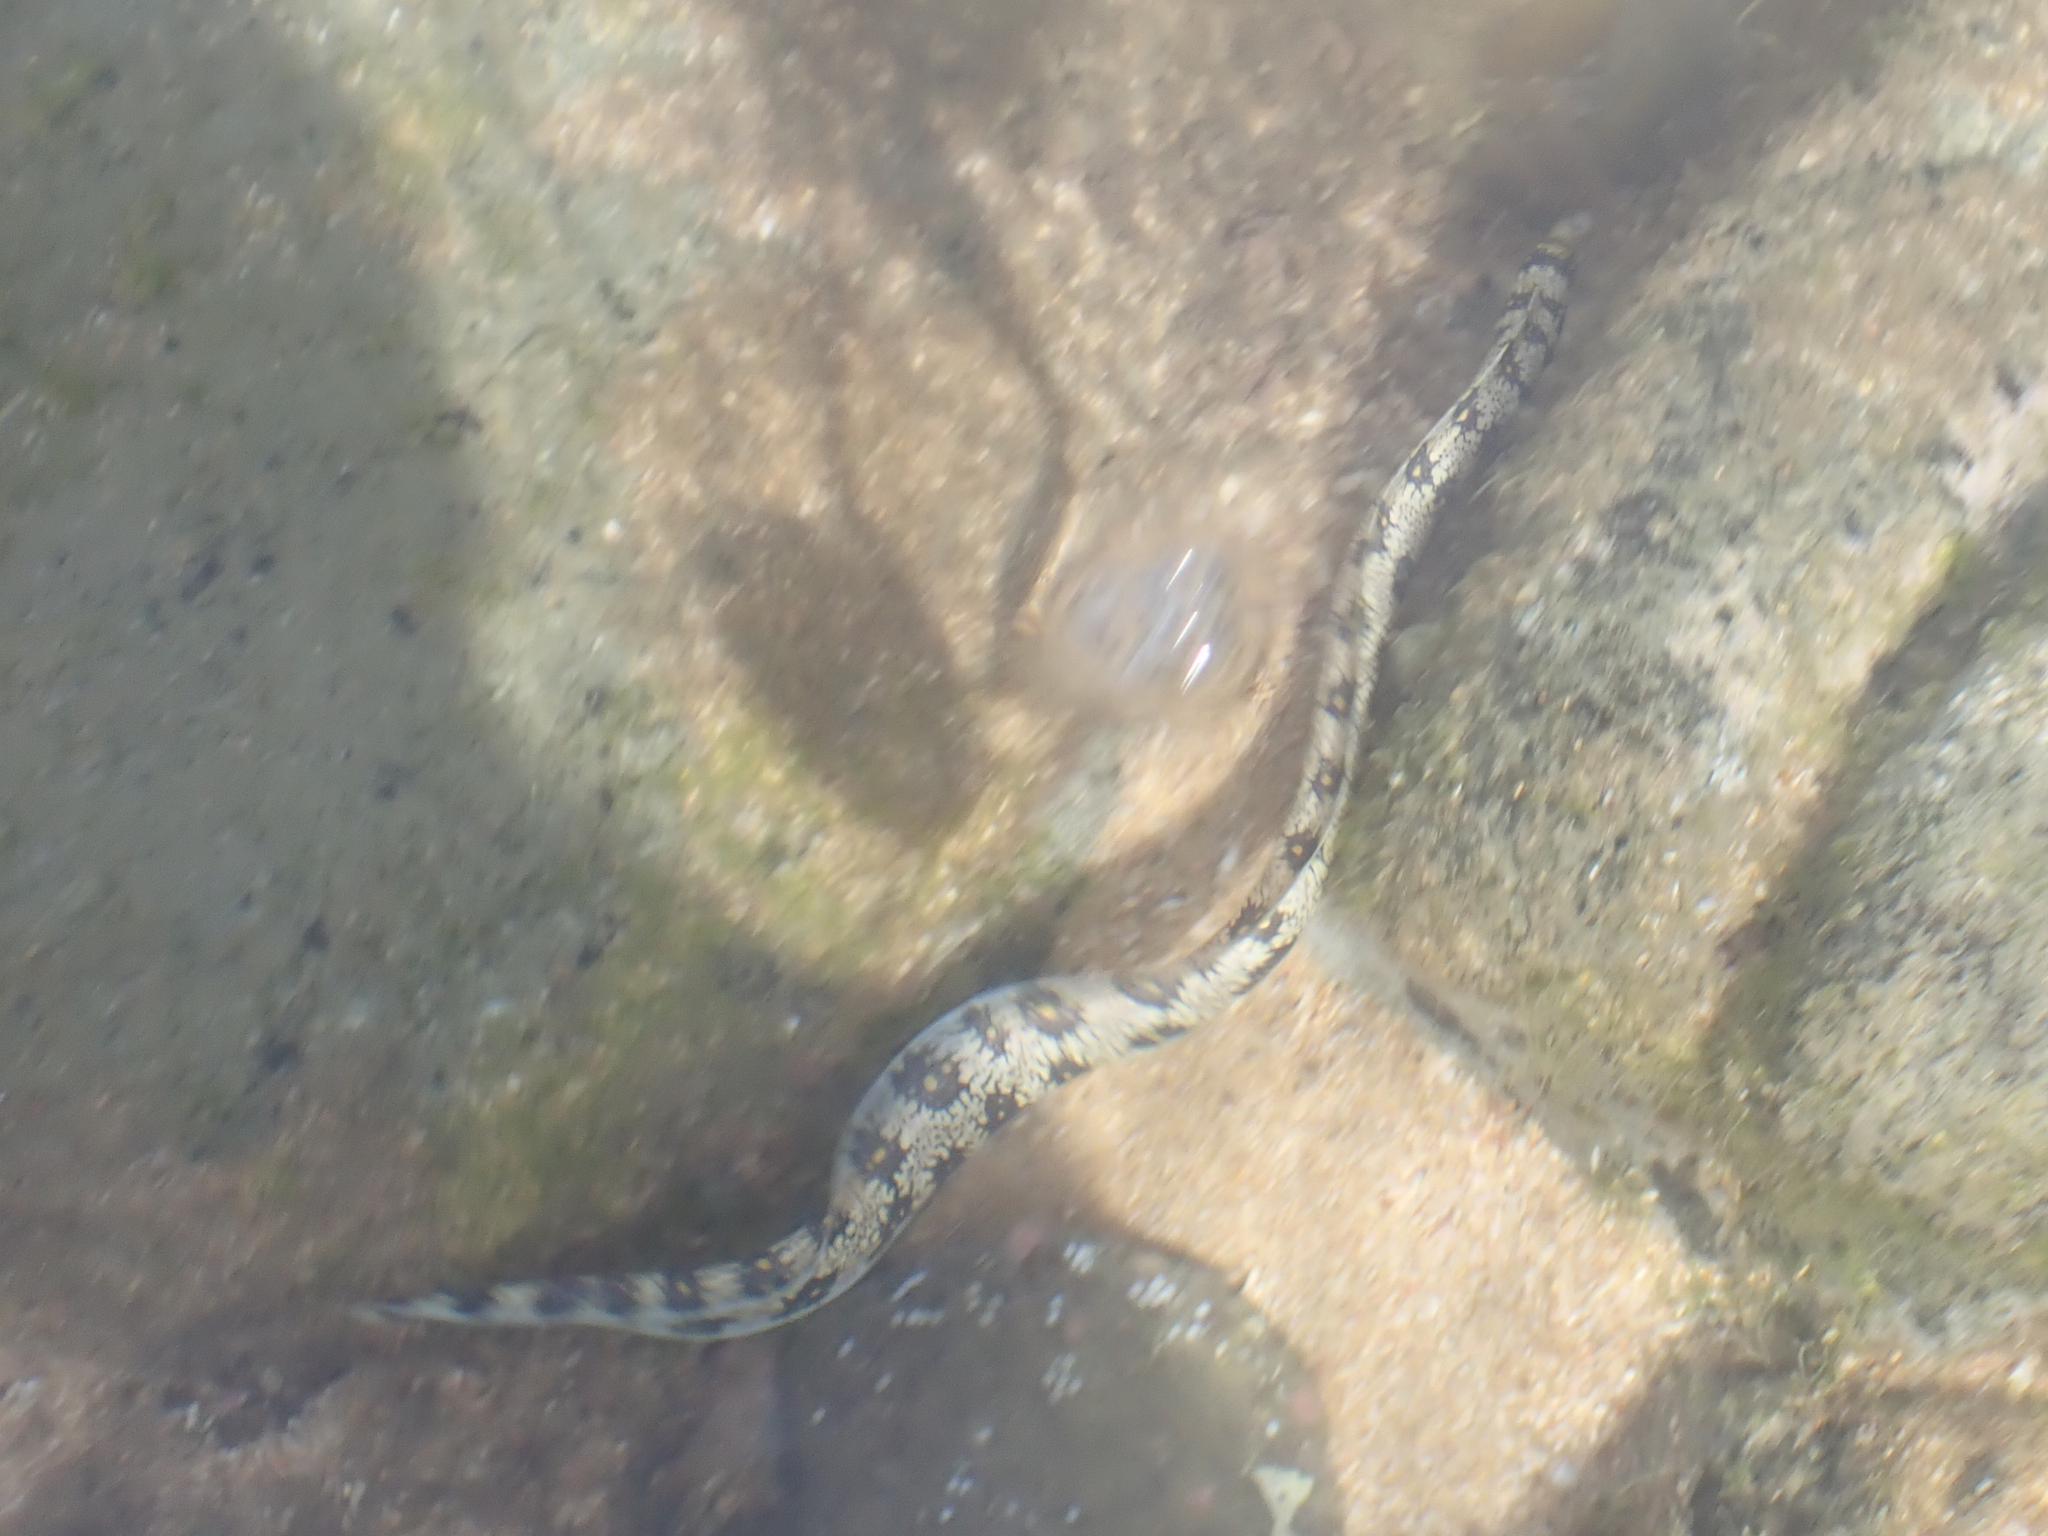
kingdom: Animalia
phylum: Chordata
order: Anguilliformes
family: Muraenidae
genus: Echidna
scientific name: Echidna nebulosa
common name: Snowflake moray
